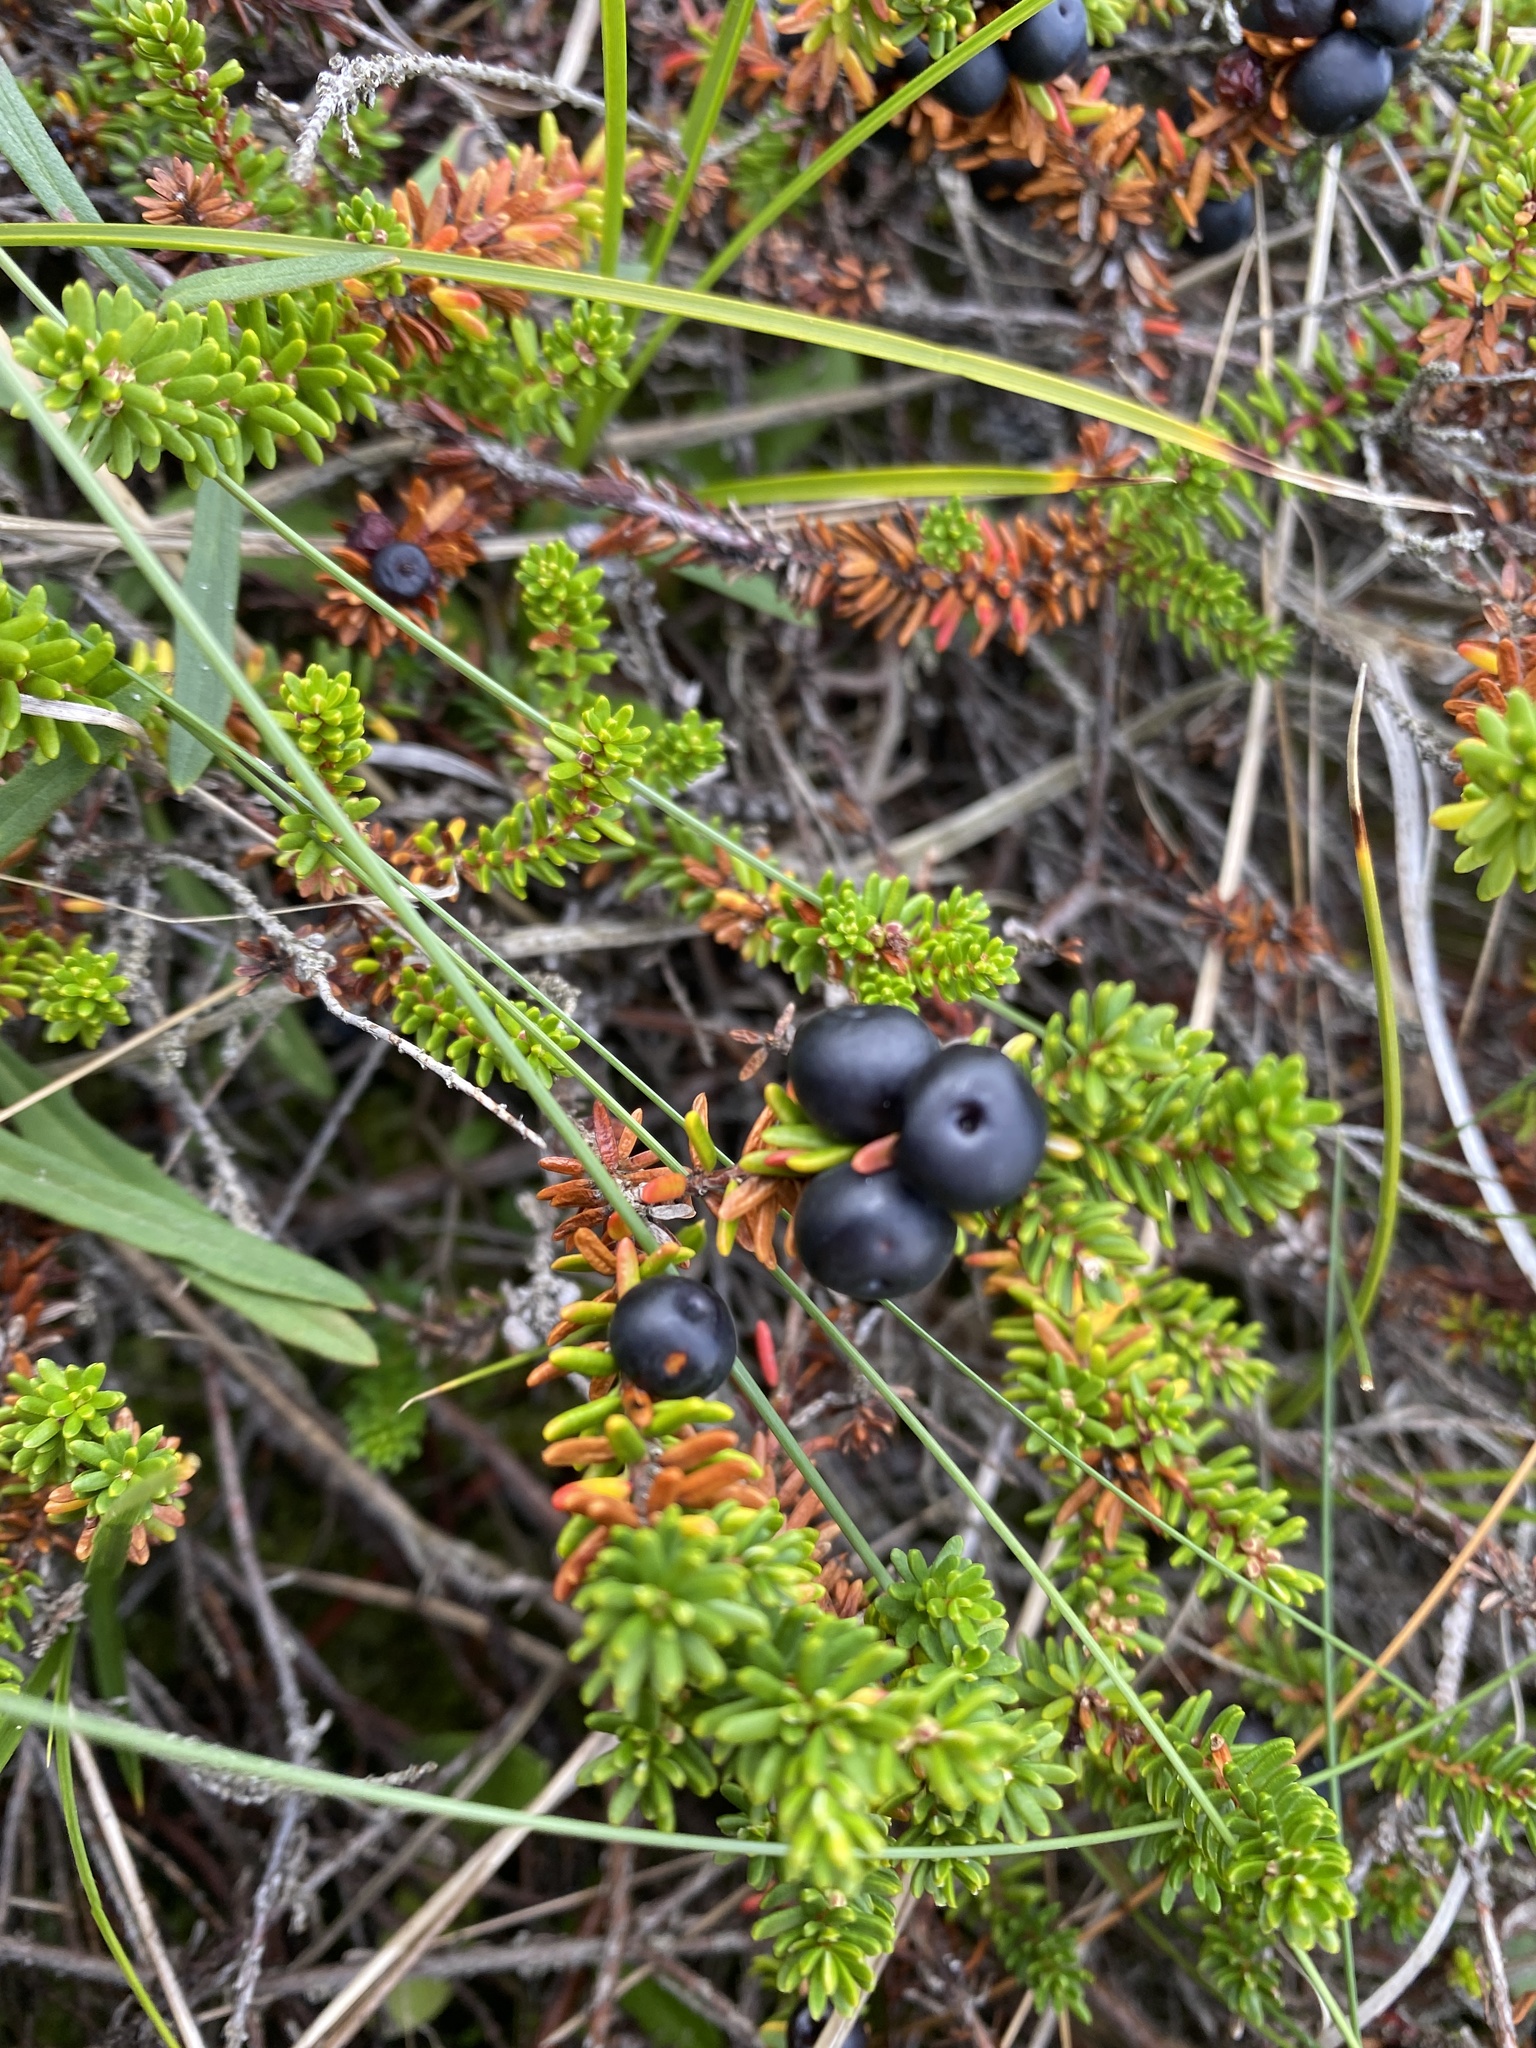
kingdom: Plantae
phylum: Tracheophyta
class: Magnoliopsida
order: Ericales
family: Ericaceae
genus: Empetrum
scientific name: Empetrum nigrum
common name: Black crowberry
